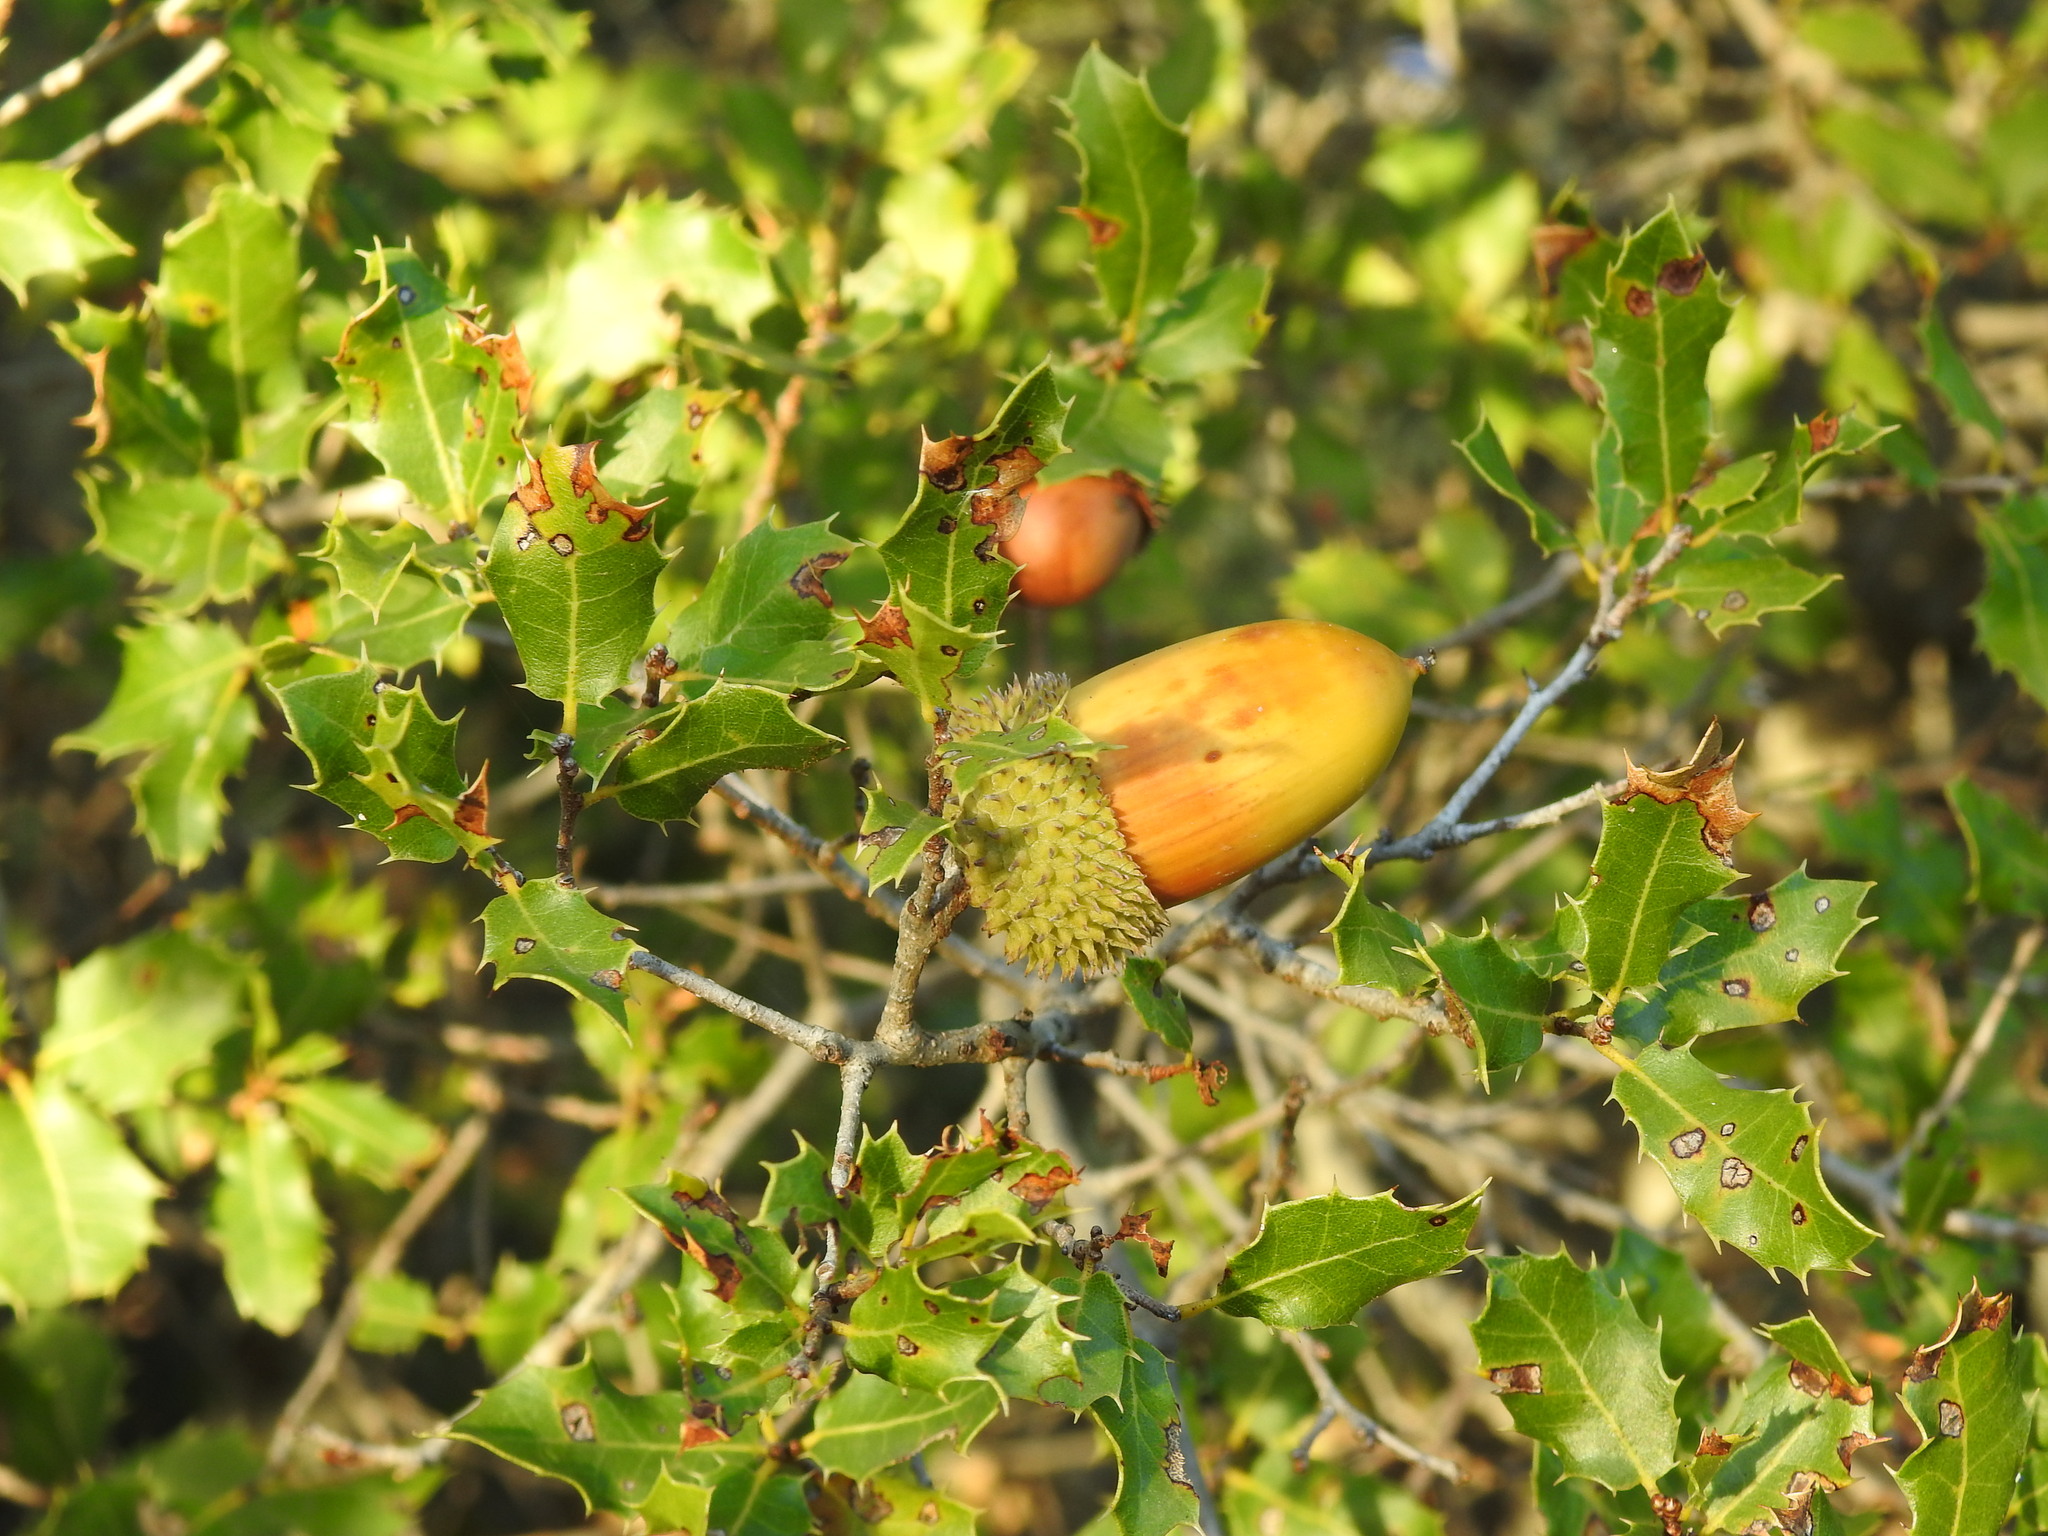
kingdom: Plantae
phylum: Tracheophyta
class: Magnoliopsida
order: Fagales
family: Fagaceae
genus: Quercus
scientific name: Quercus coccifera
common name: Kermes oak
